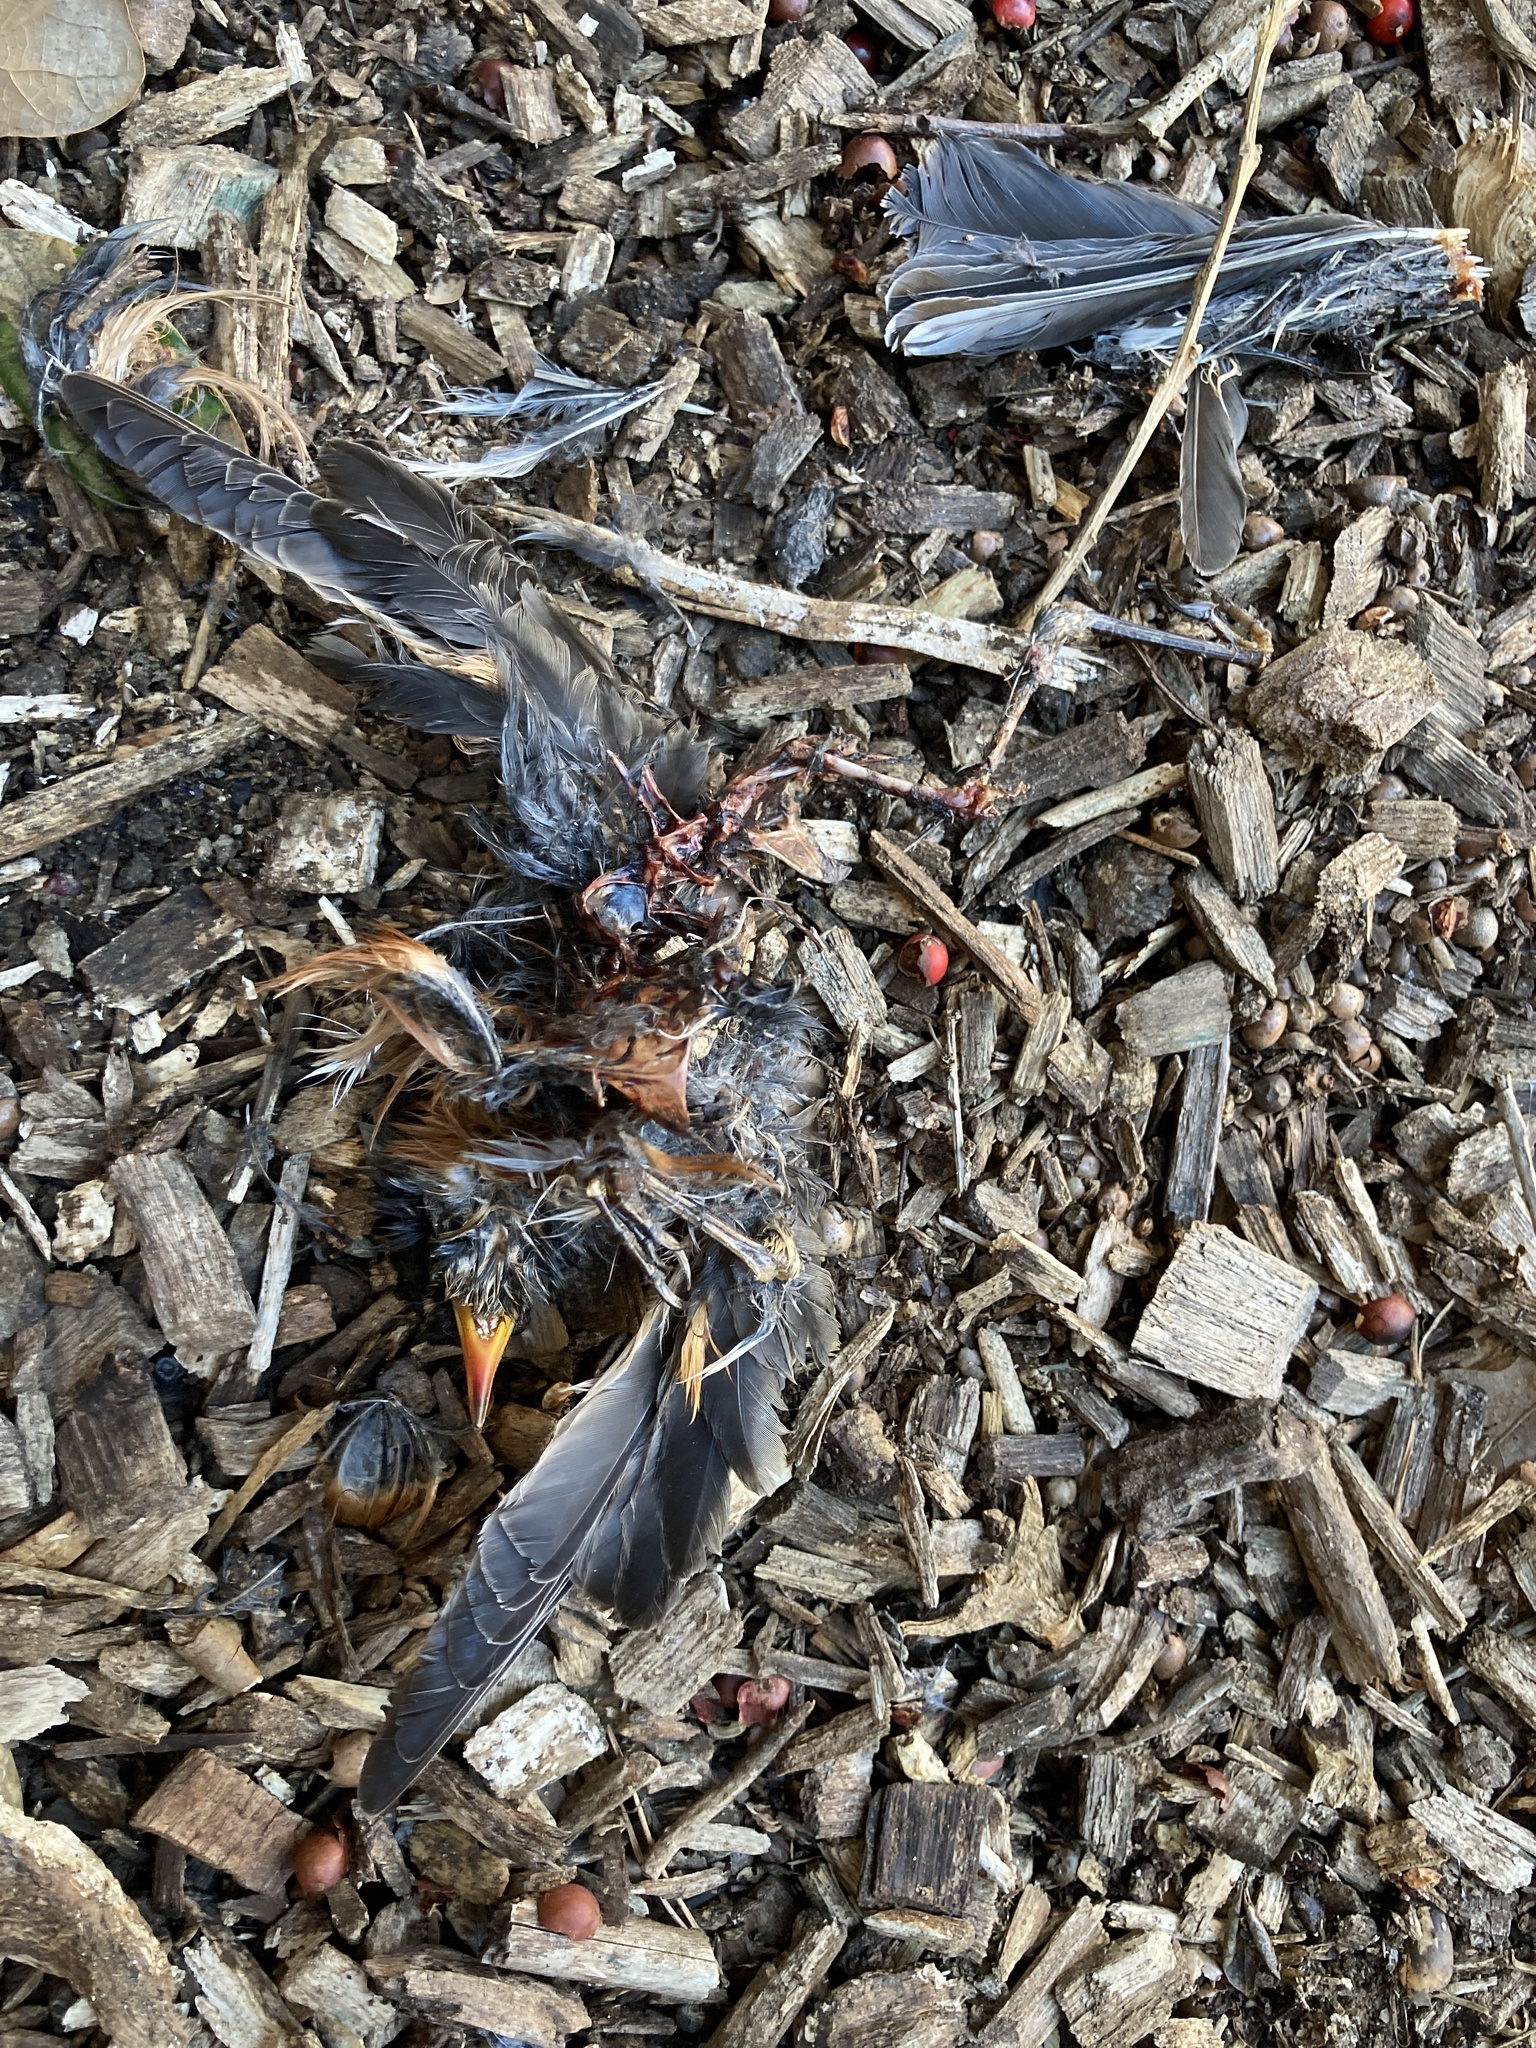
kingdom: Animalia
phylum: Chordata
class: Aves
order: Passeriformes
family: Turdidae
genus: Turdus
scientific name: Turdus migratorius
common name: American robin
